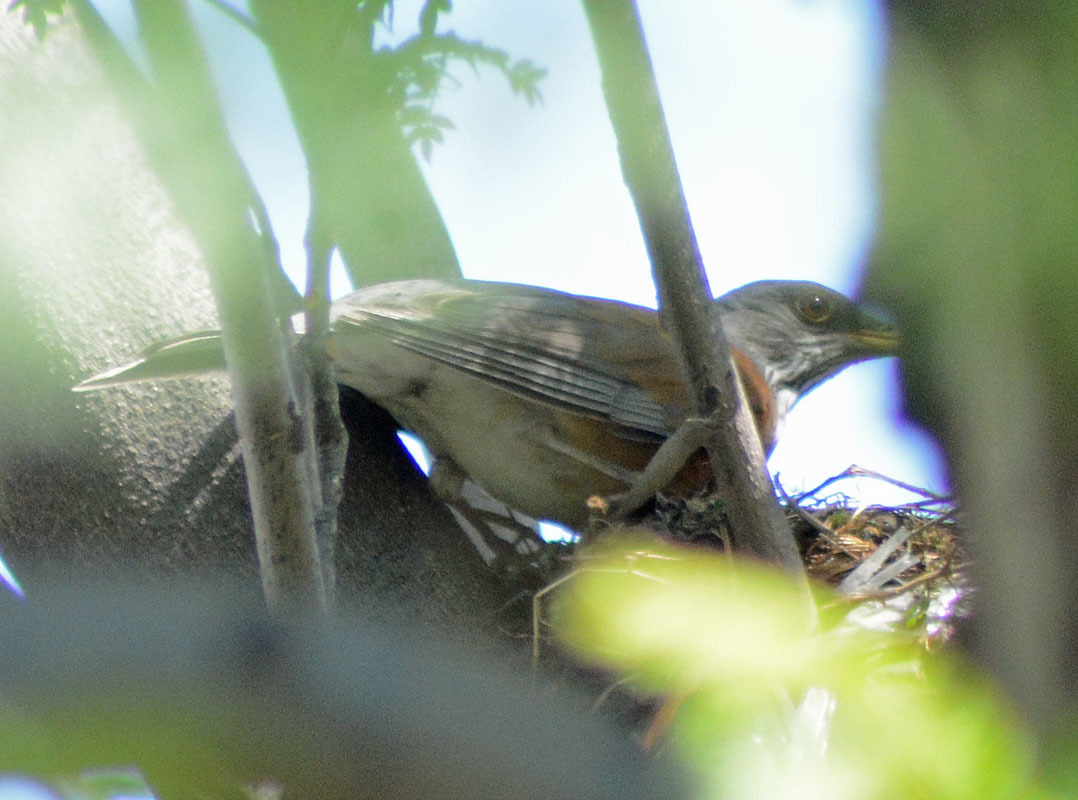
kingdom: Animalia
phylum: Chordata
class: Aves
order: Passeriformes
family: Turdidae
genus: Turdus
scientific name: Turdus rufopalliatus
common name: Rufous-backed robin
